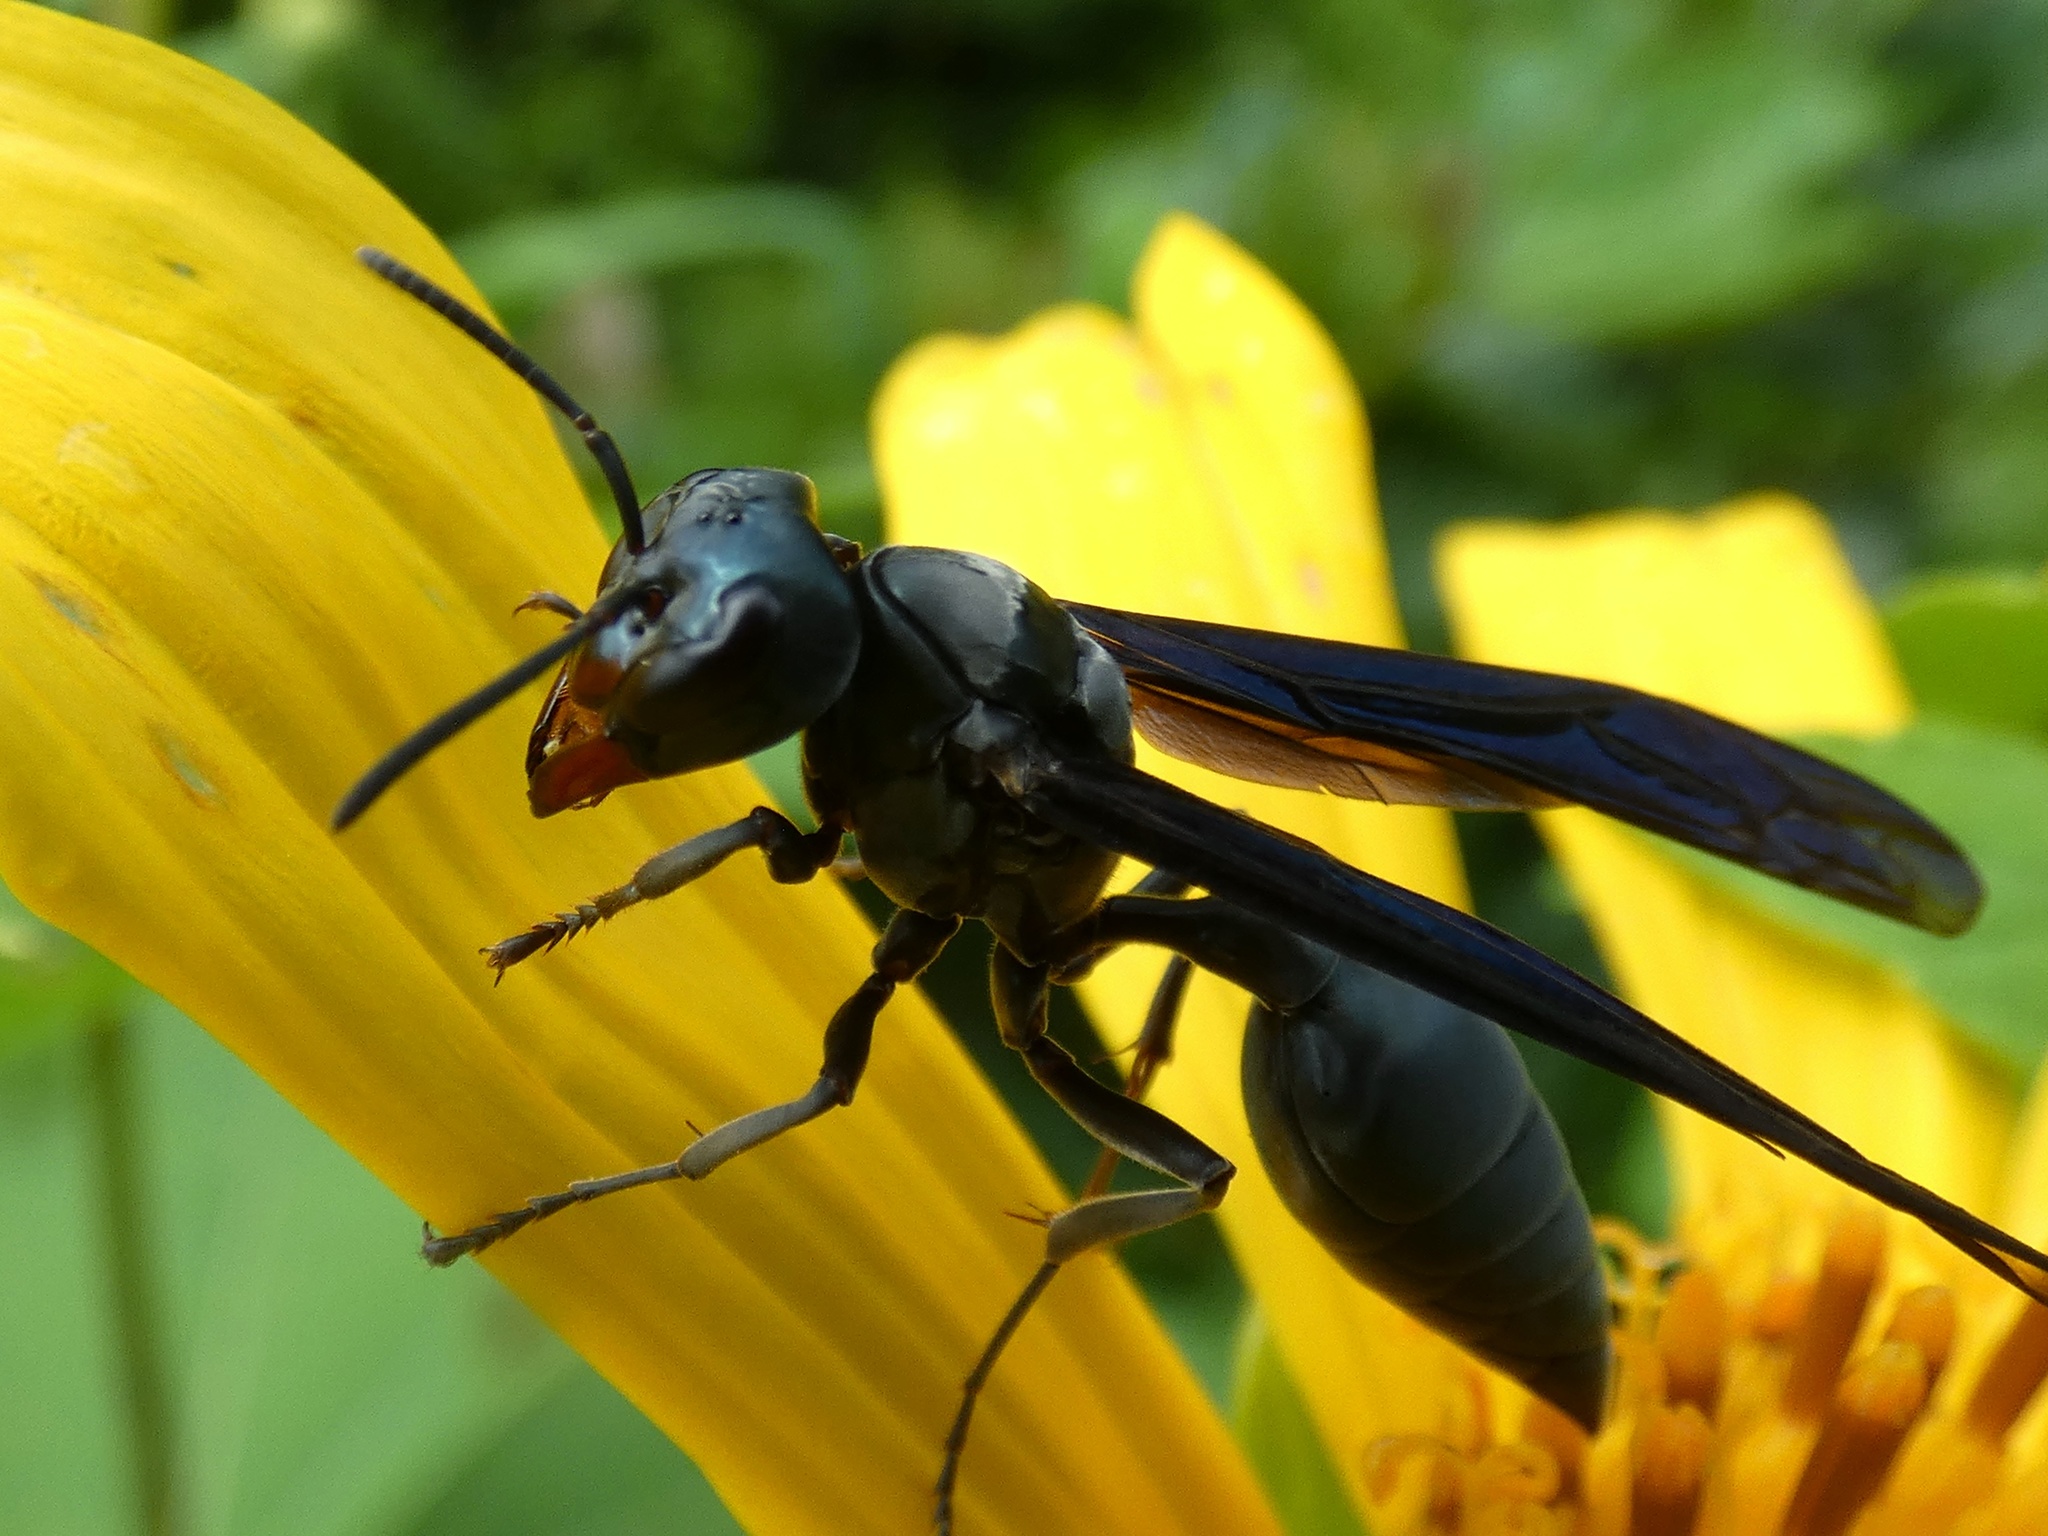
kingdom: Animalia
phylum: Arthropoda
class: Insecta
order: Hymenoptera
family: Vespidae
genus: Synoeca
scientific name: Synoeca septentrionalis
